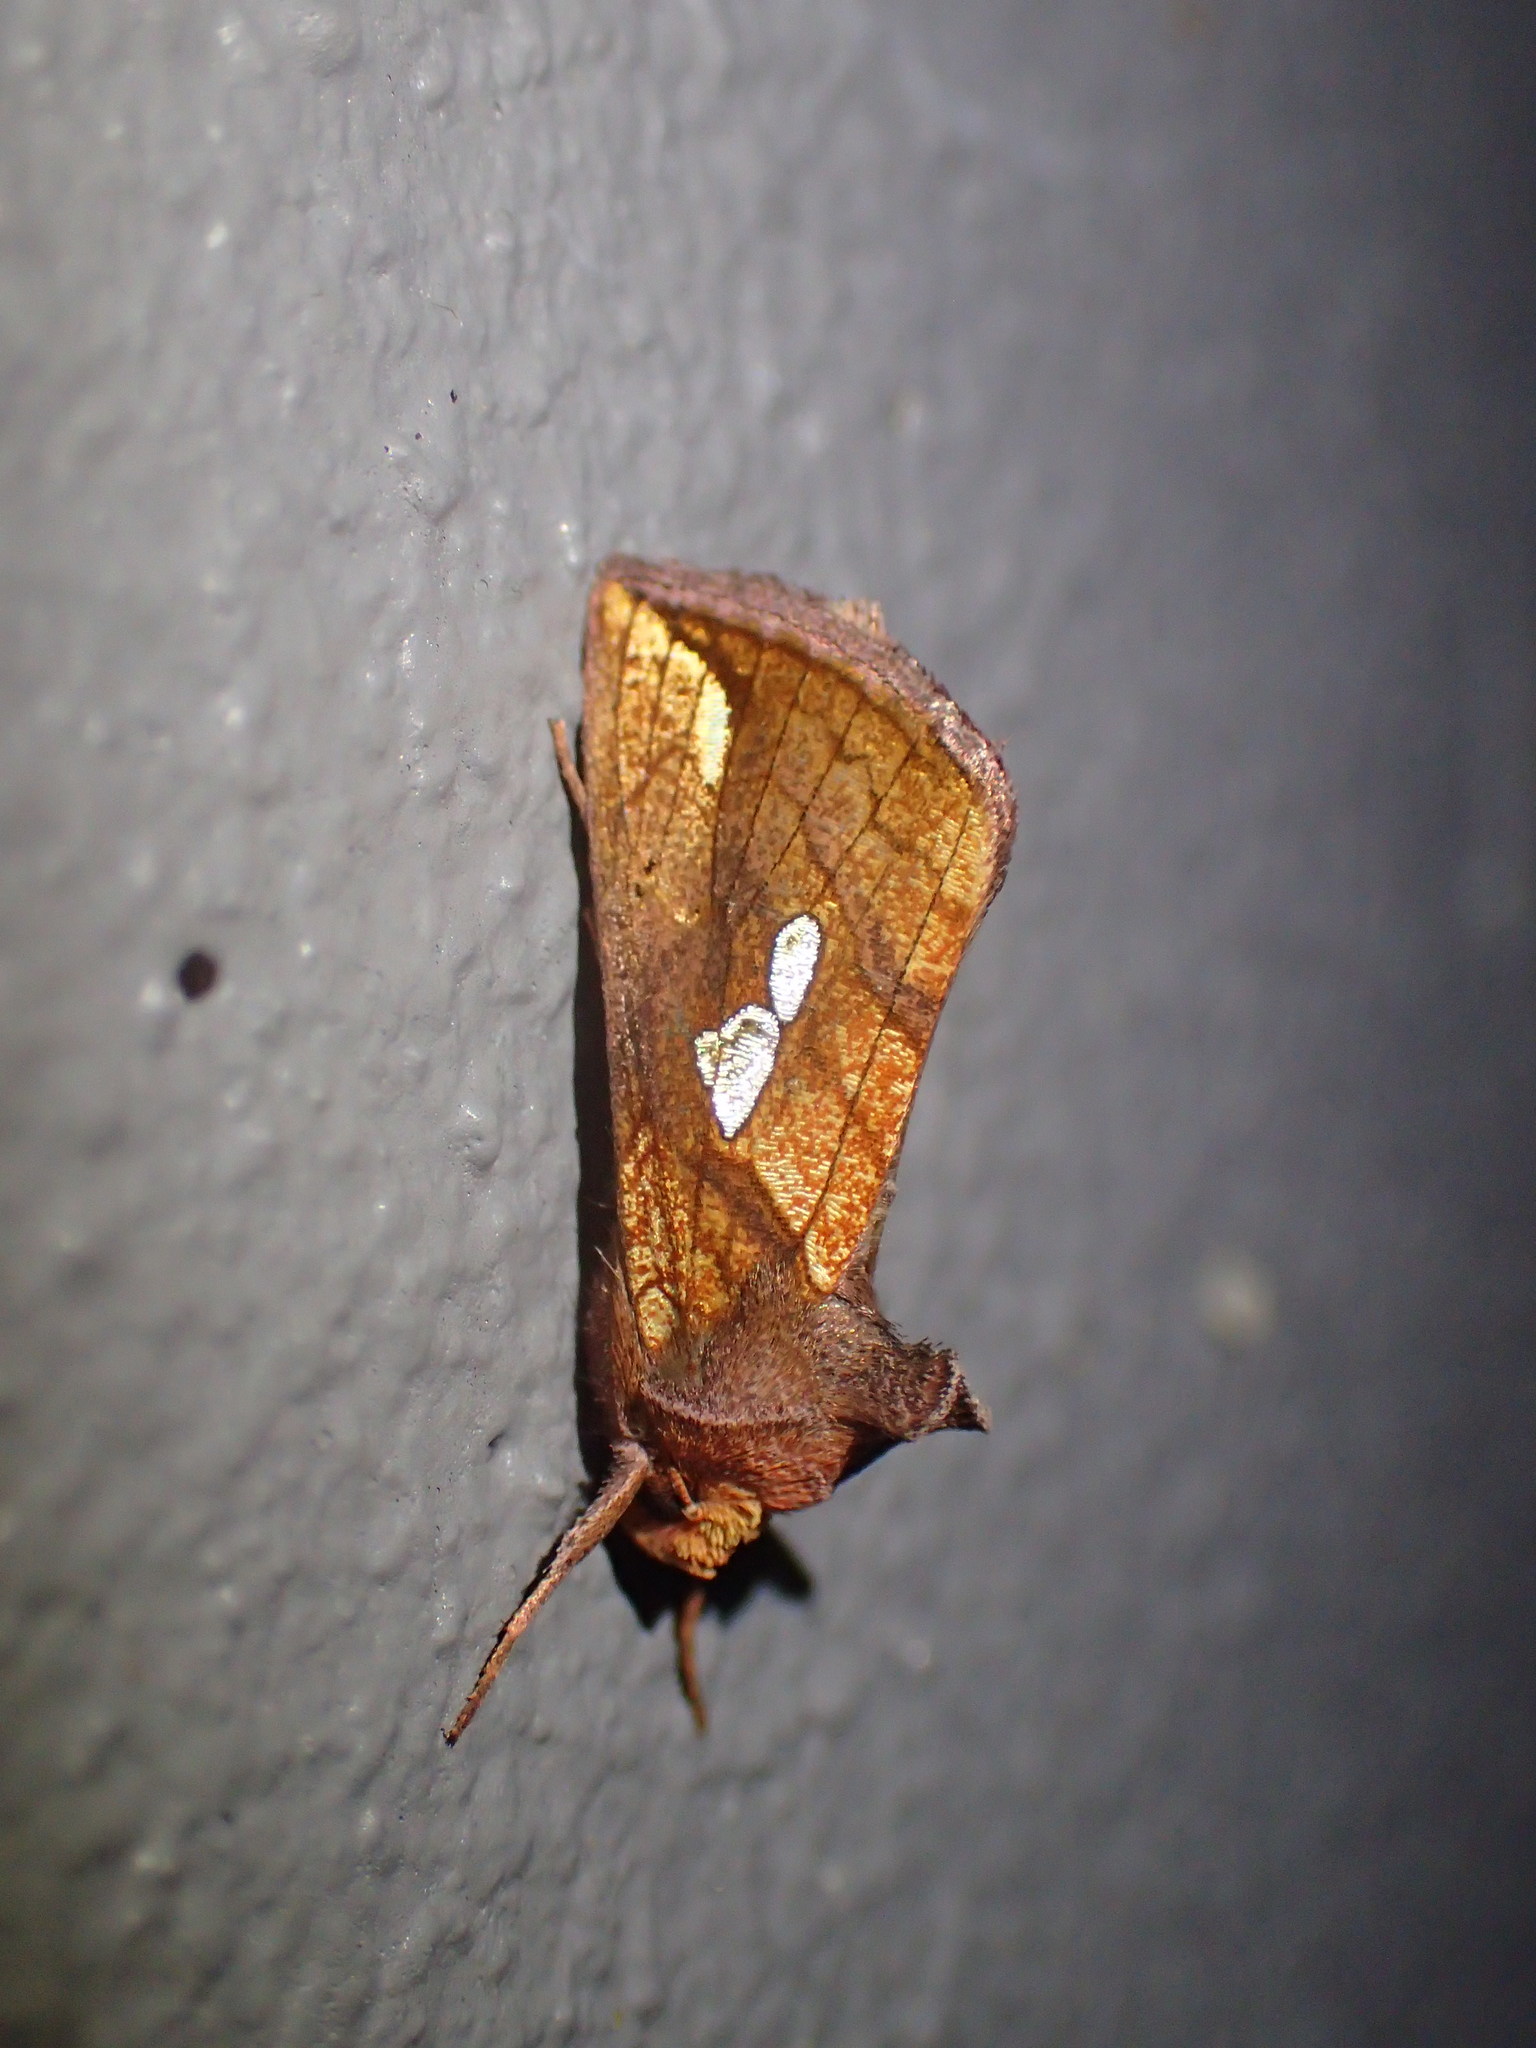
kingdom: Animalia
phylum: Arthropoda
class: Insecta
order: Lepidoptera
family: Noctuidae
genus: Plusia
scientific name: Plusia putnami
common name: Lempke's gold spot
